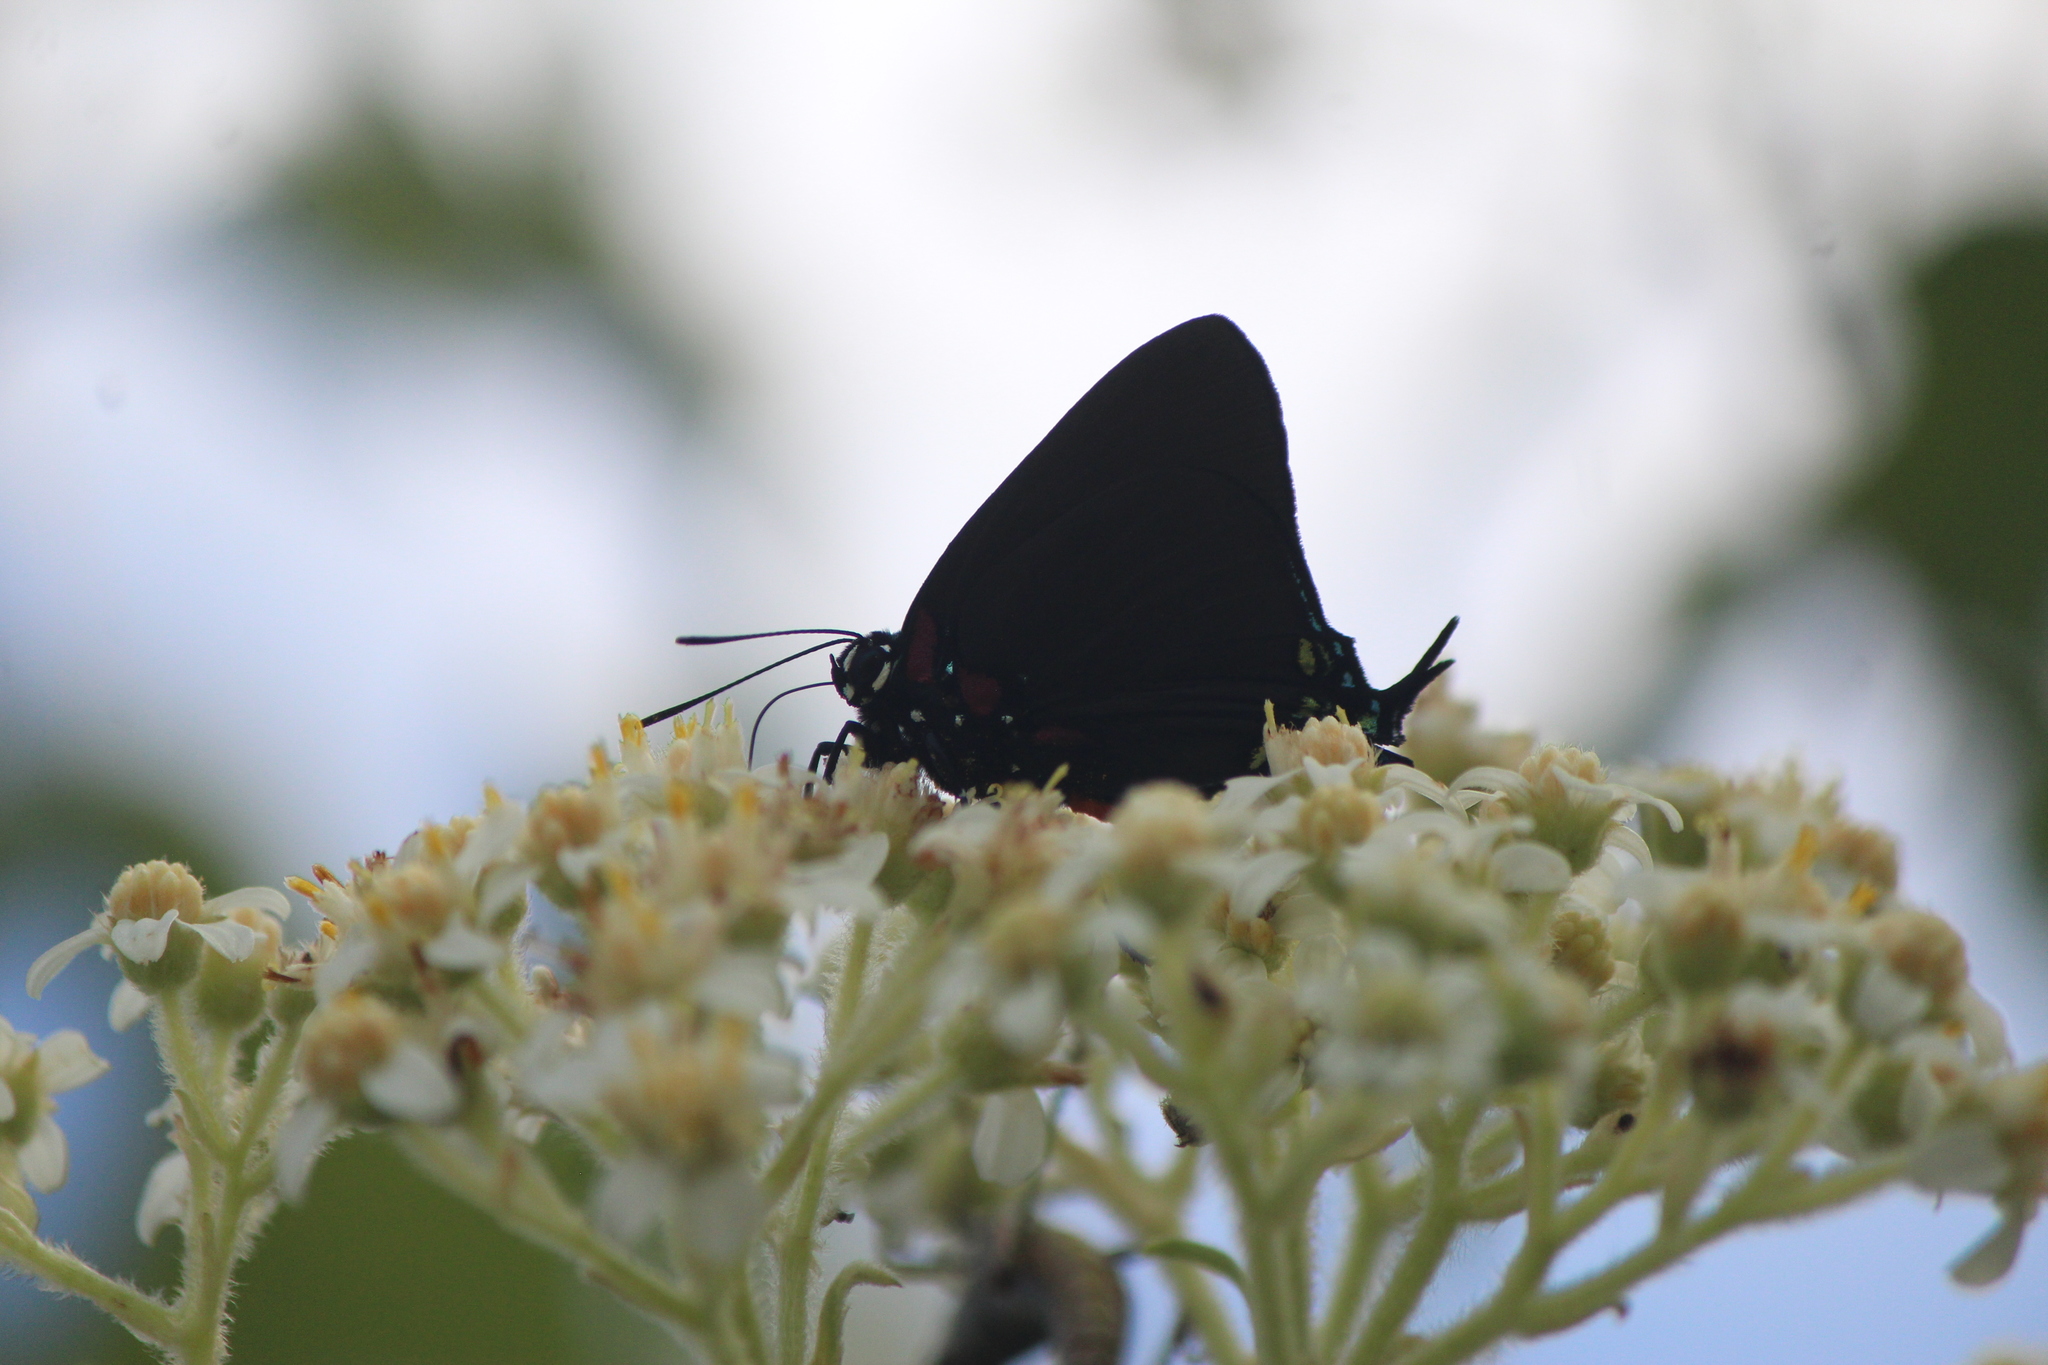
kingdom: Animalia
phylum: Arthropoda
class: Insecta
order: Lepidoptera
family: Lycaenidae
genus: Atlides
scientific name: Atlides halesus
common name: Great purple hairstreak
